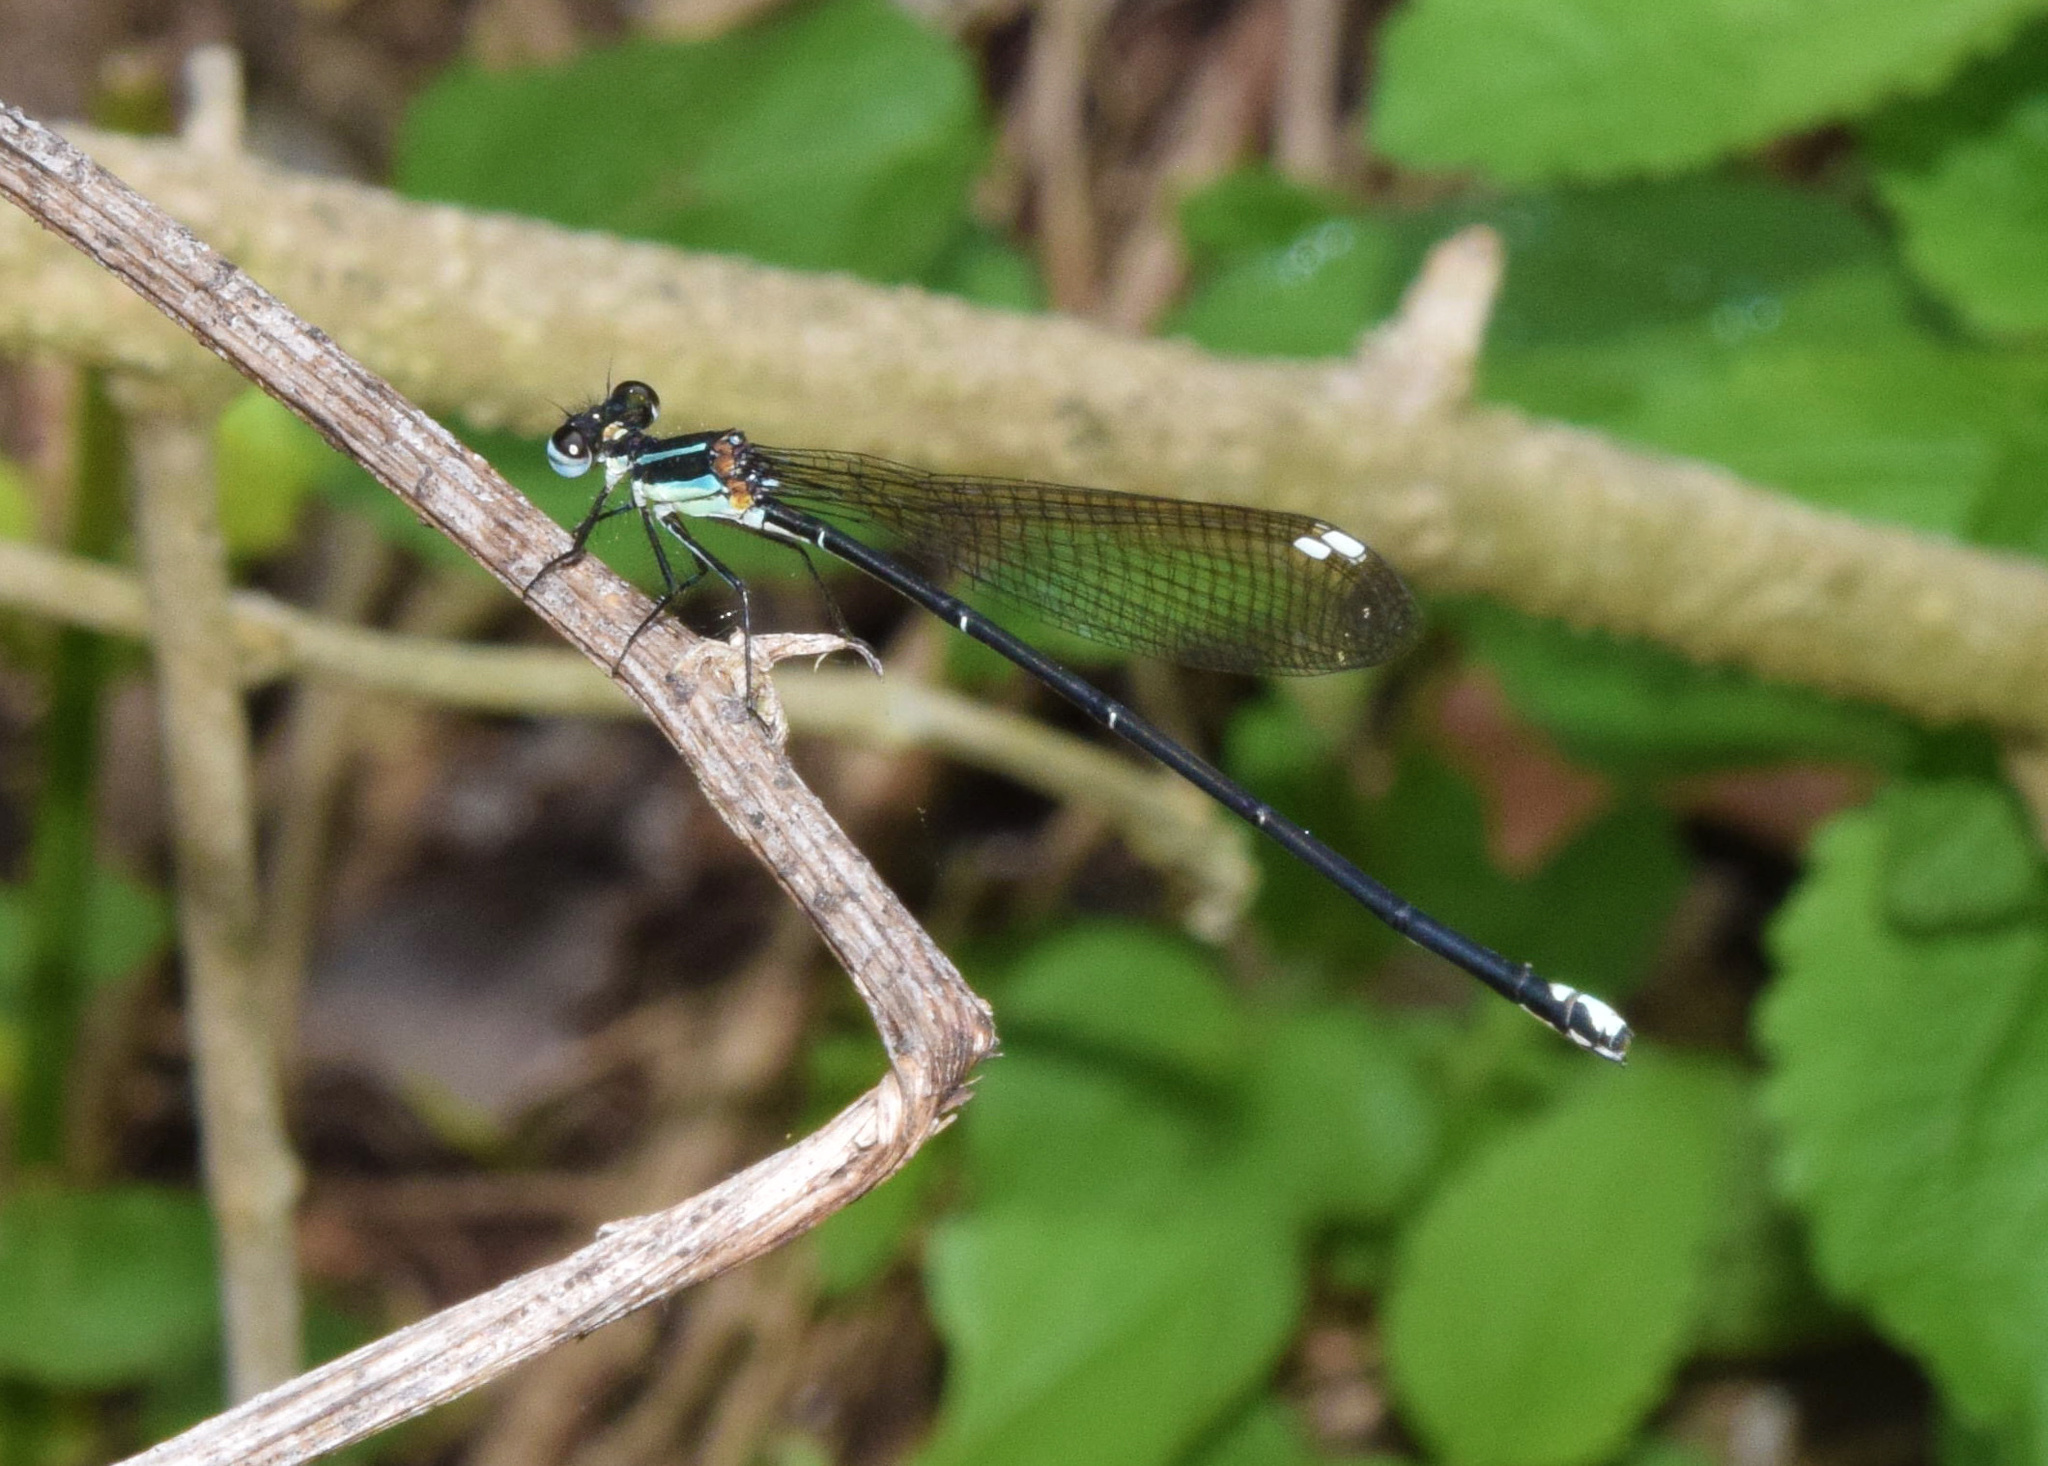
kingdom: Animalia
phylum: Arthropoda
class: Insecta
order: Odonata
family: Platycnemididae
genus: Allocnemis
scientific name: Allocnemis leucosticta
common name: Goldtail
